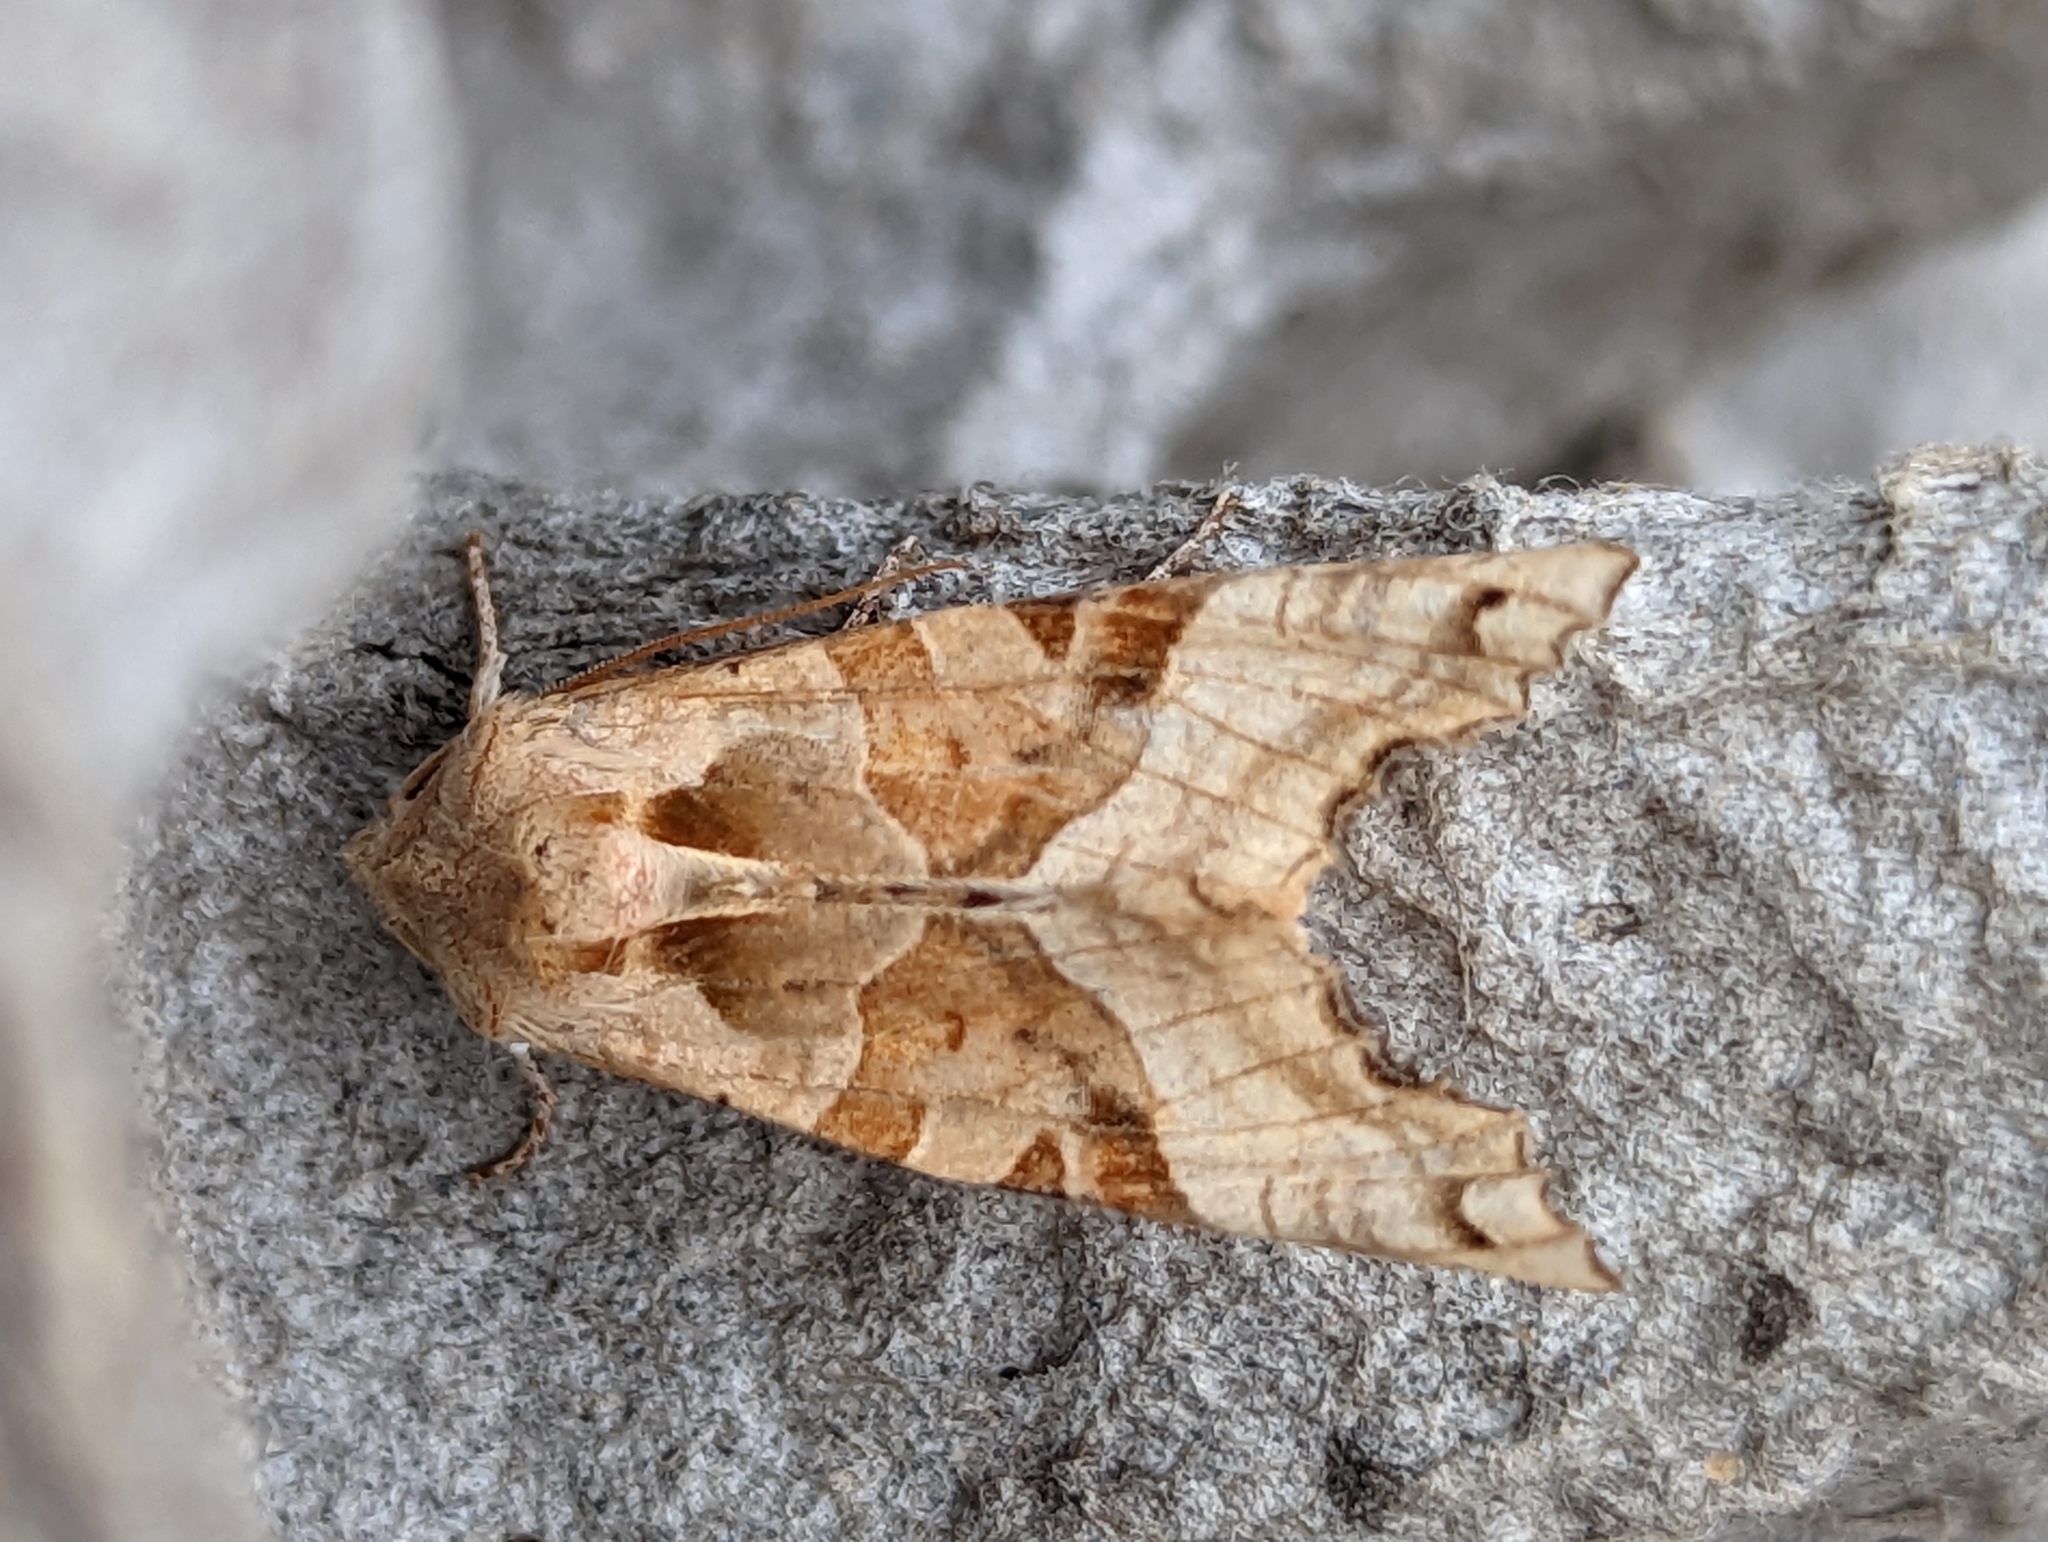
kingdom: Animalia
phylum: Arthropoda
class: Insecta
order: Lepidoptera
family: Noctuidae
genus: Phlogophora
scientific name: Phlogophora meticulosa
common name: Angle shades
